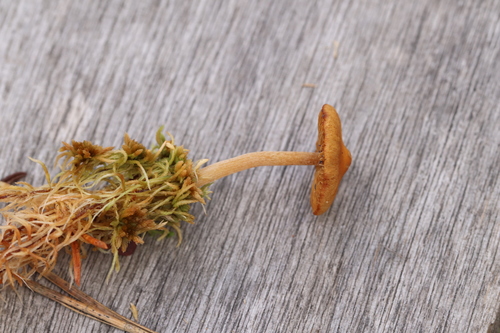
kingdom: Fungi
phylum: Basidiomycota
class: Agaricomycetes
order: Agaricales
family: Hymenogastraceae
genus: Galerina
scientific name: Galerina tibiicystis
